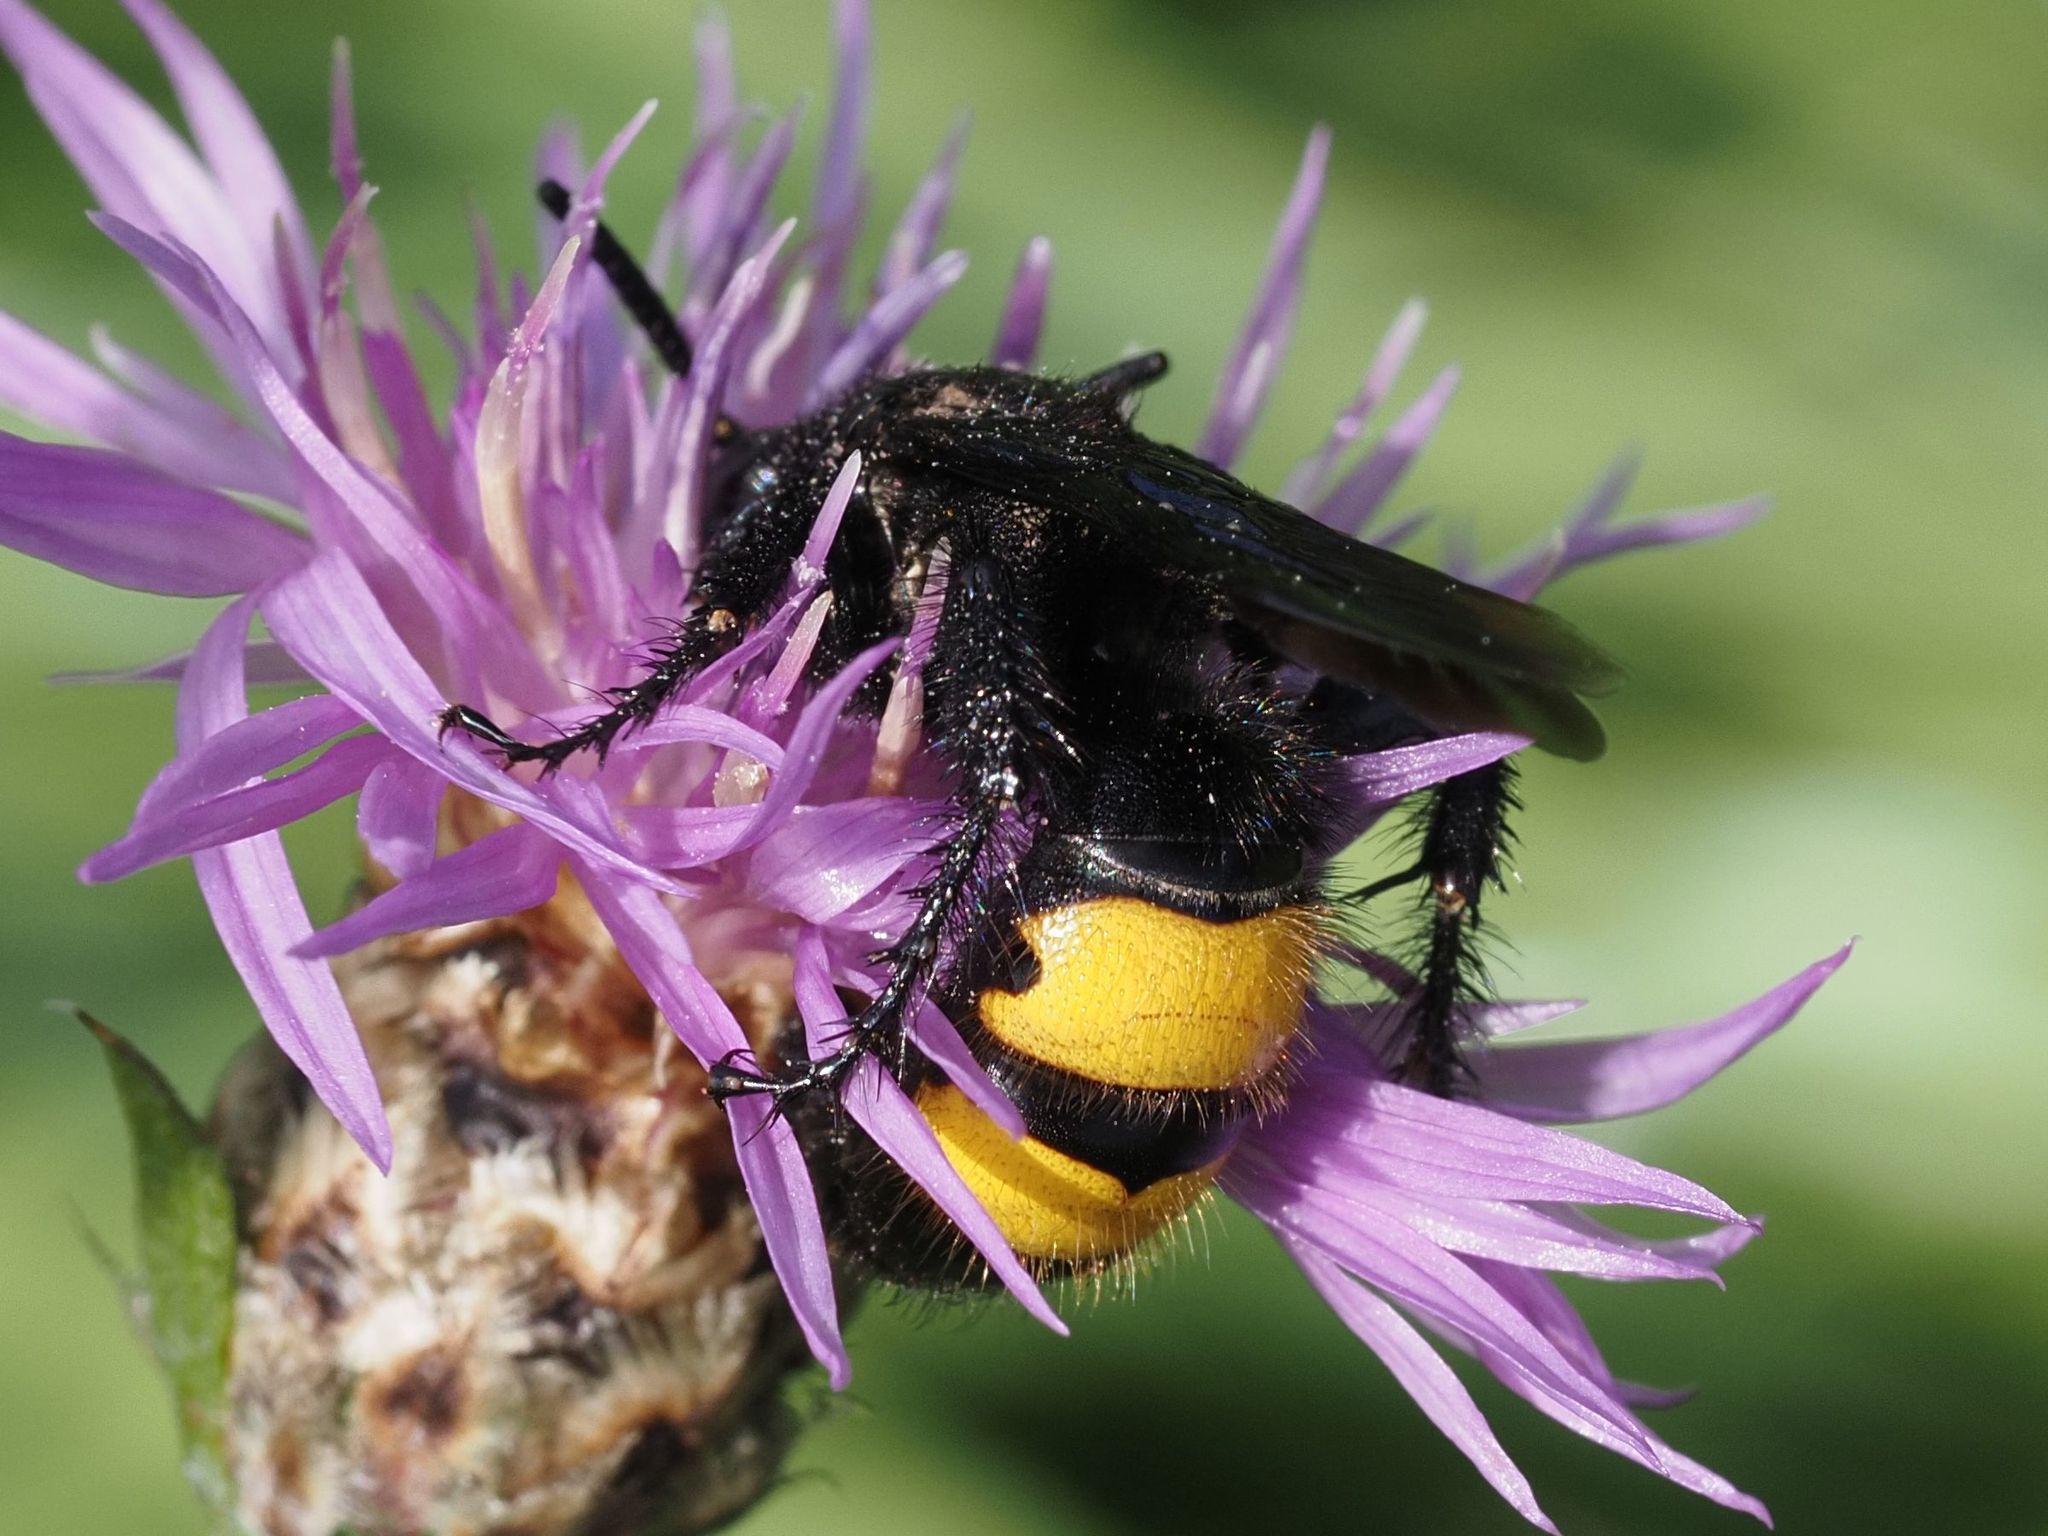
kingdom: Animalia
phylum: Arthropoda
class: Insecta
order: Hymenoptera
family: Scoliidae
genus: Scolia
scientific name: Scolia hirta
